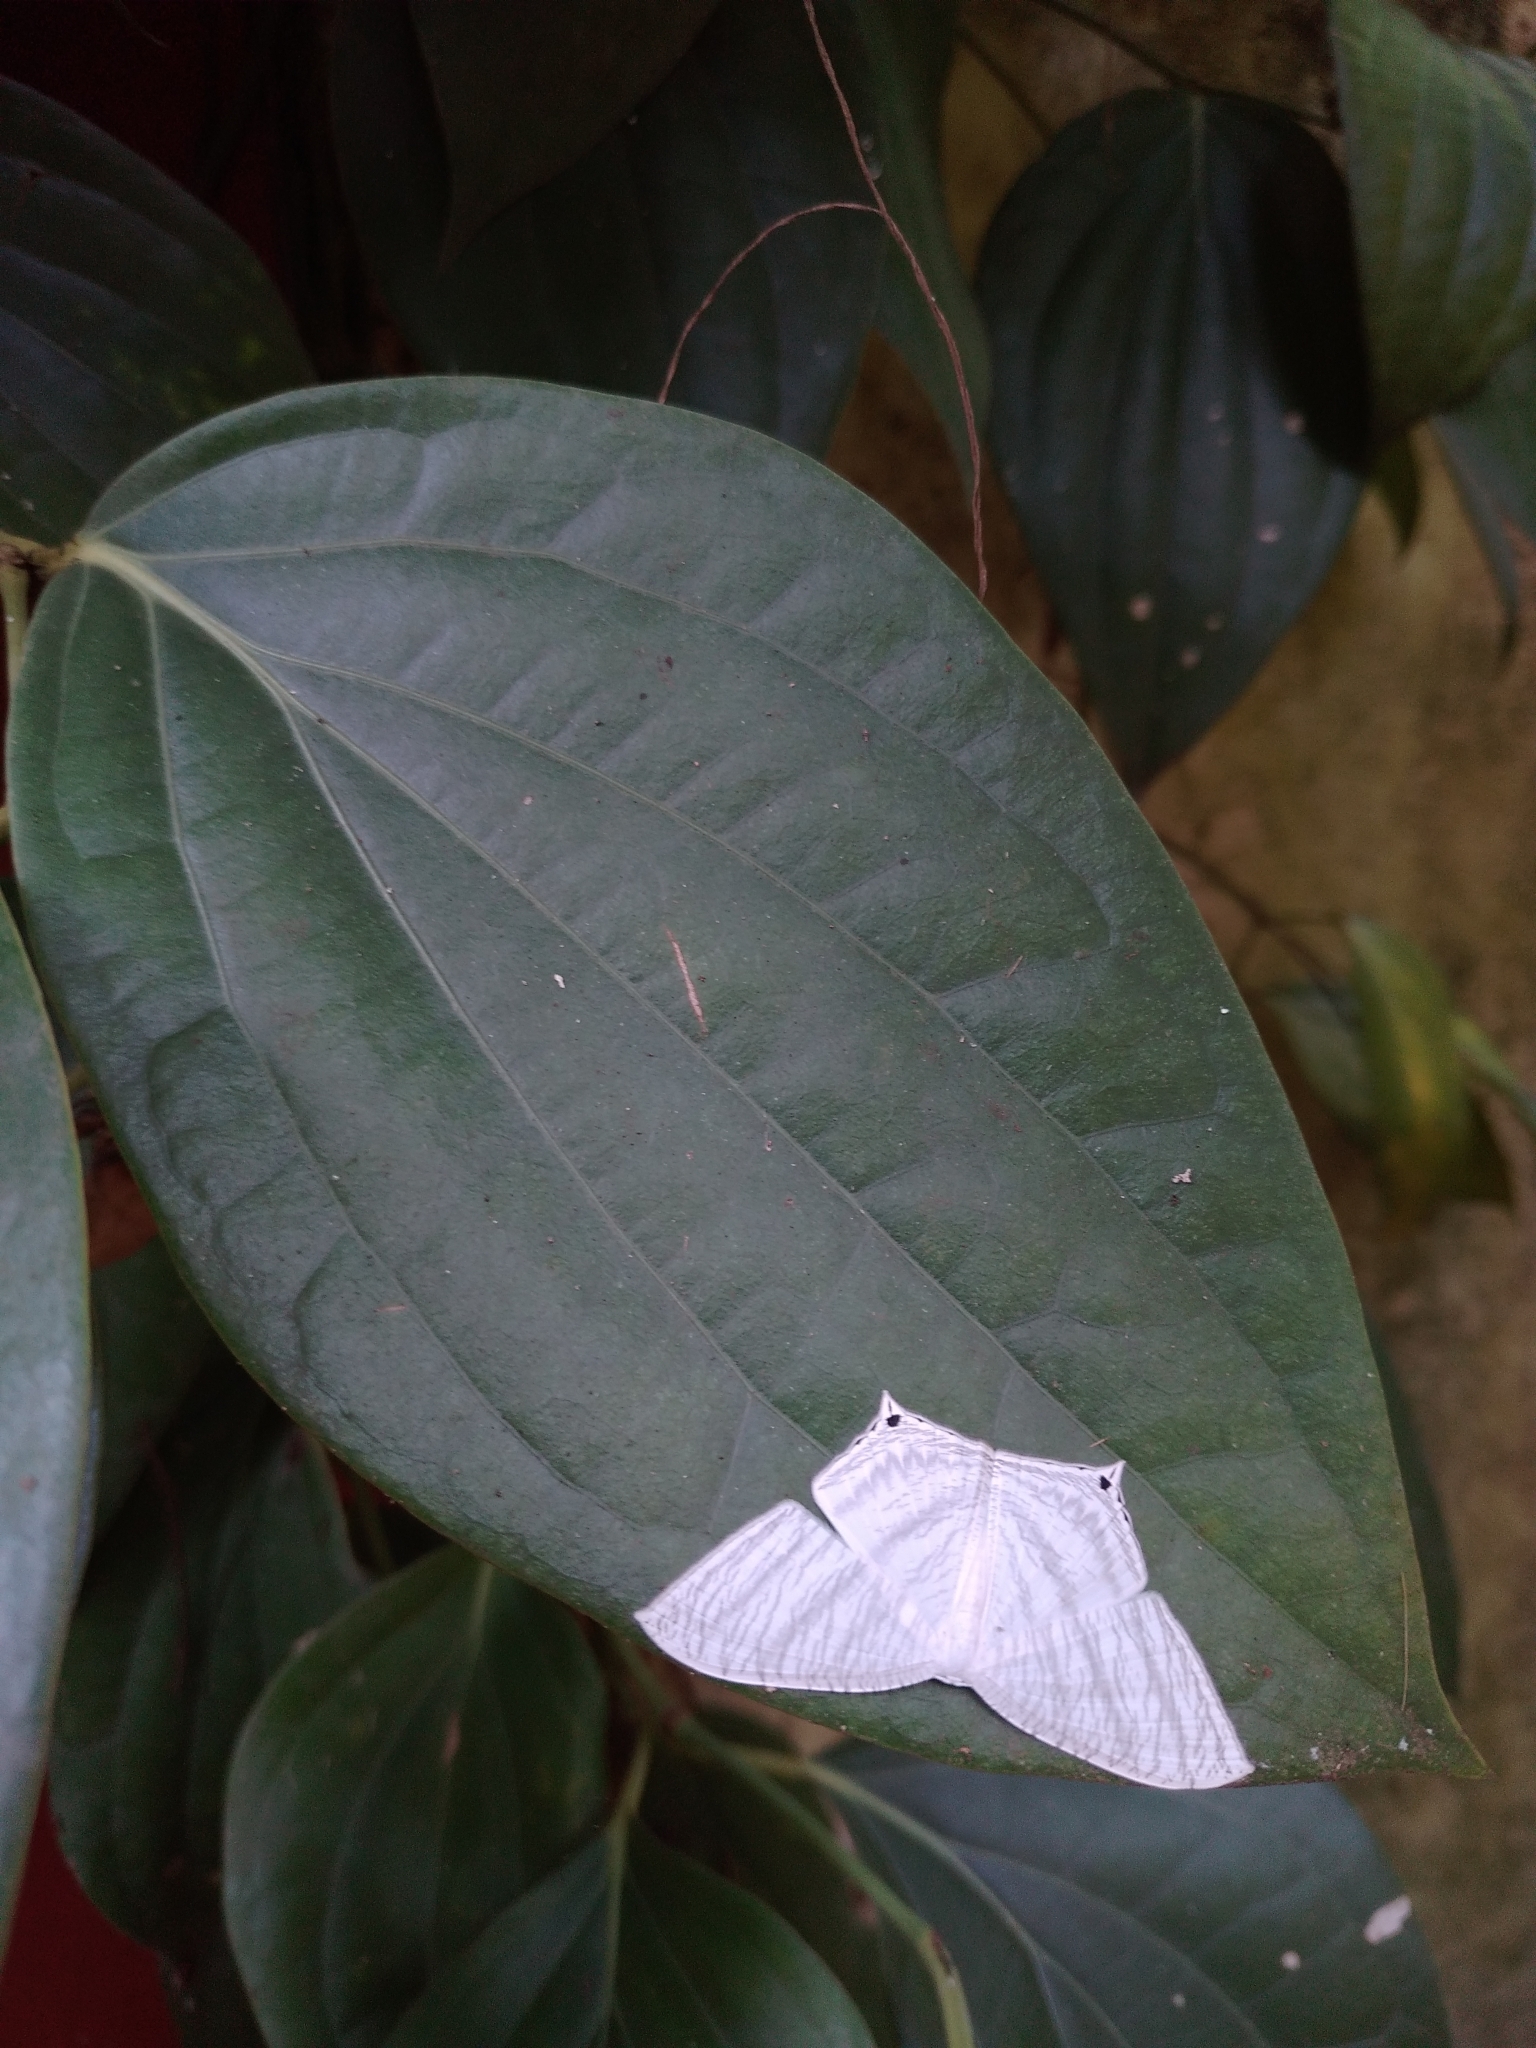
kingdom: Animalia
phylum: Arthropoda
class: Insecta
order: Lepidoptera
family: Uraniidae
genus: Micronia
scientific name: Micronia aculeata
